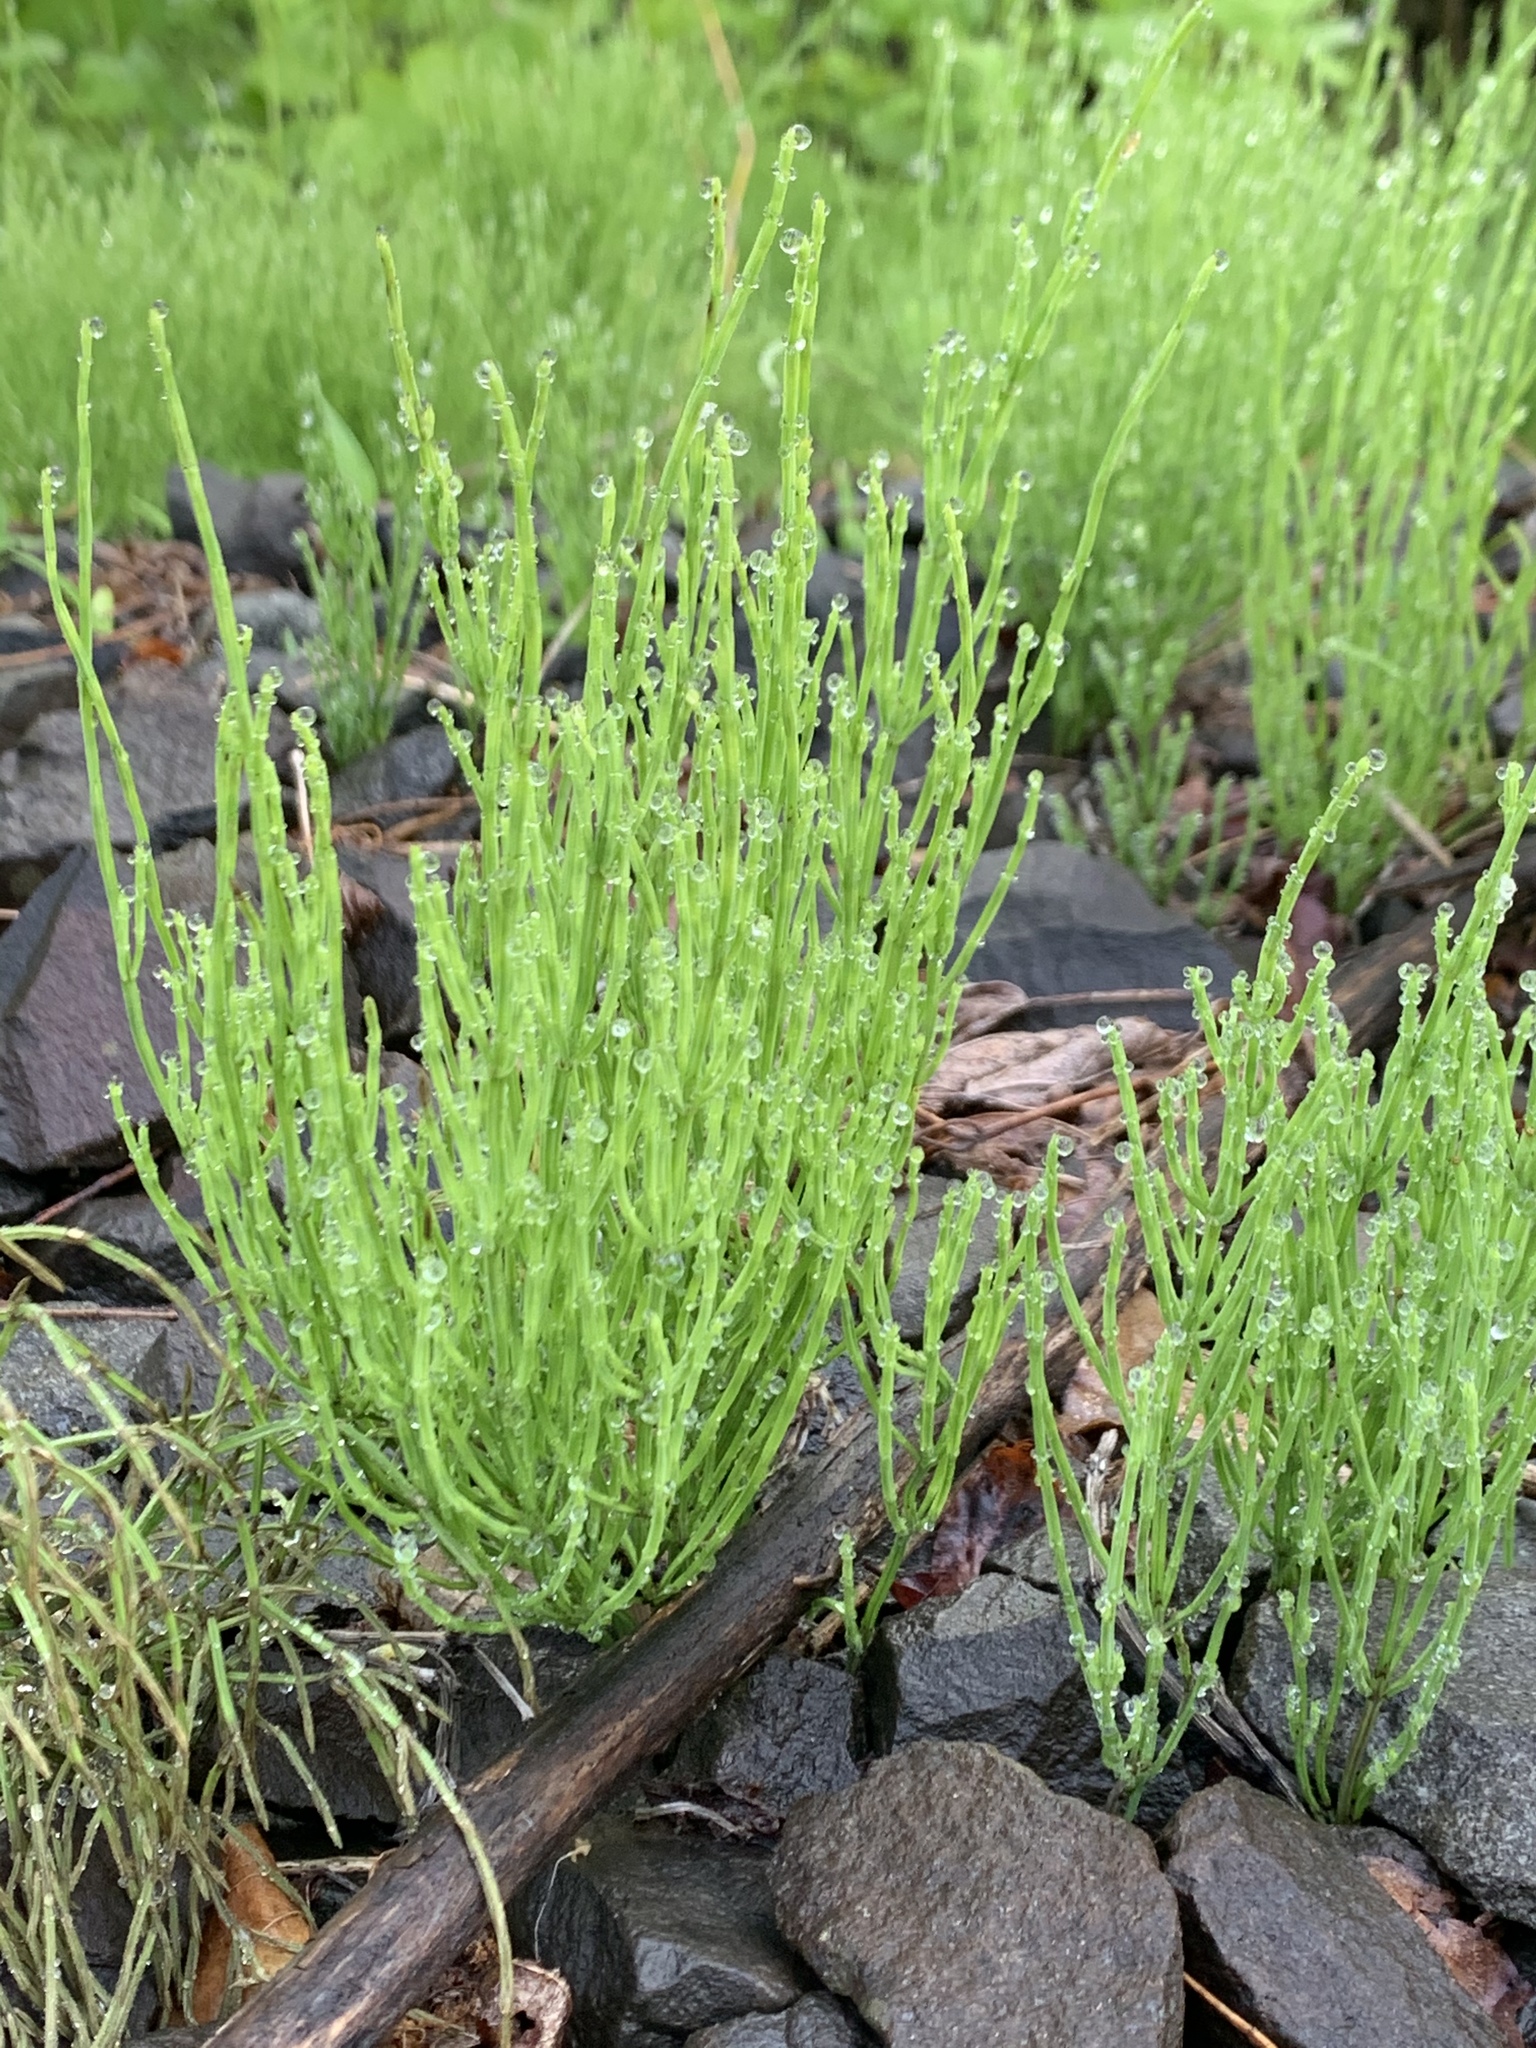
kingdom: Plantae
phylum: Tracheophyta
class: Polypodiopsida
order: Equisetales
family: Equisetaceae
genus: Equisetum
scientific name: Equisetum arvense
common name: Field horsetail
